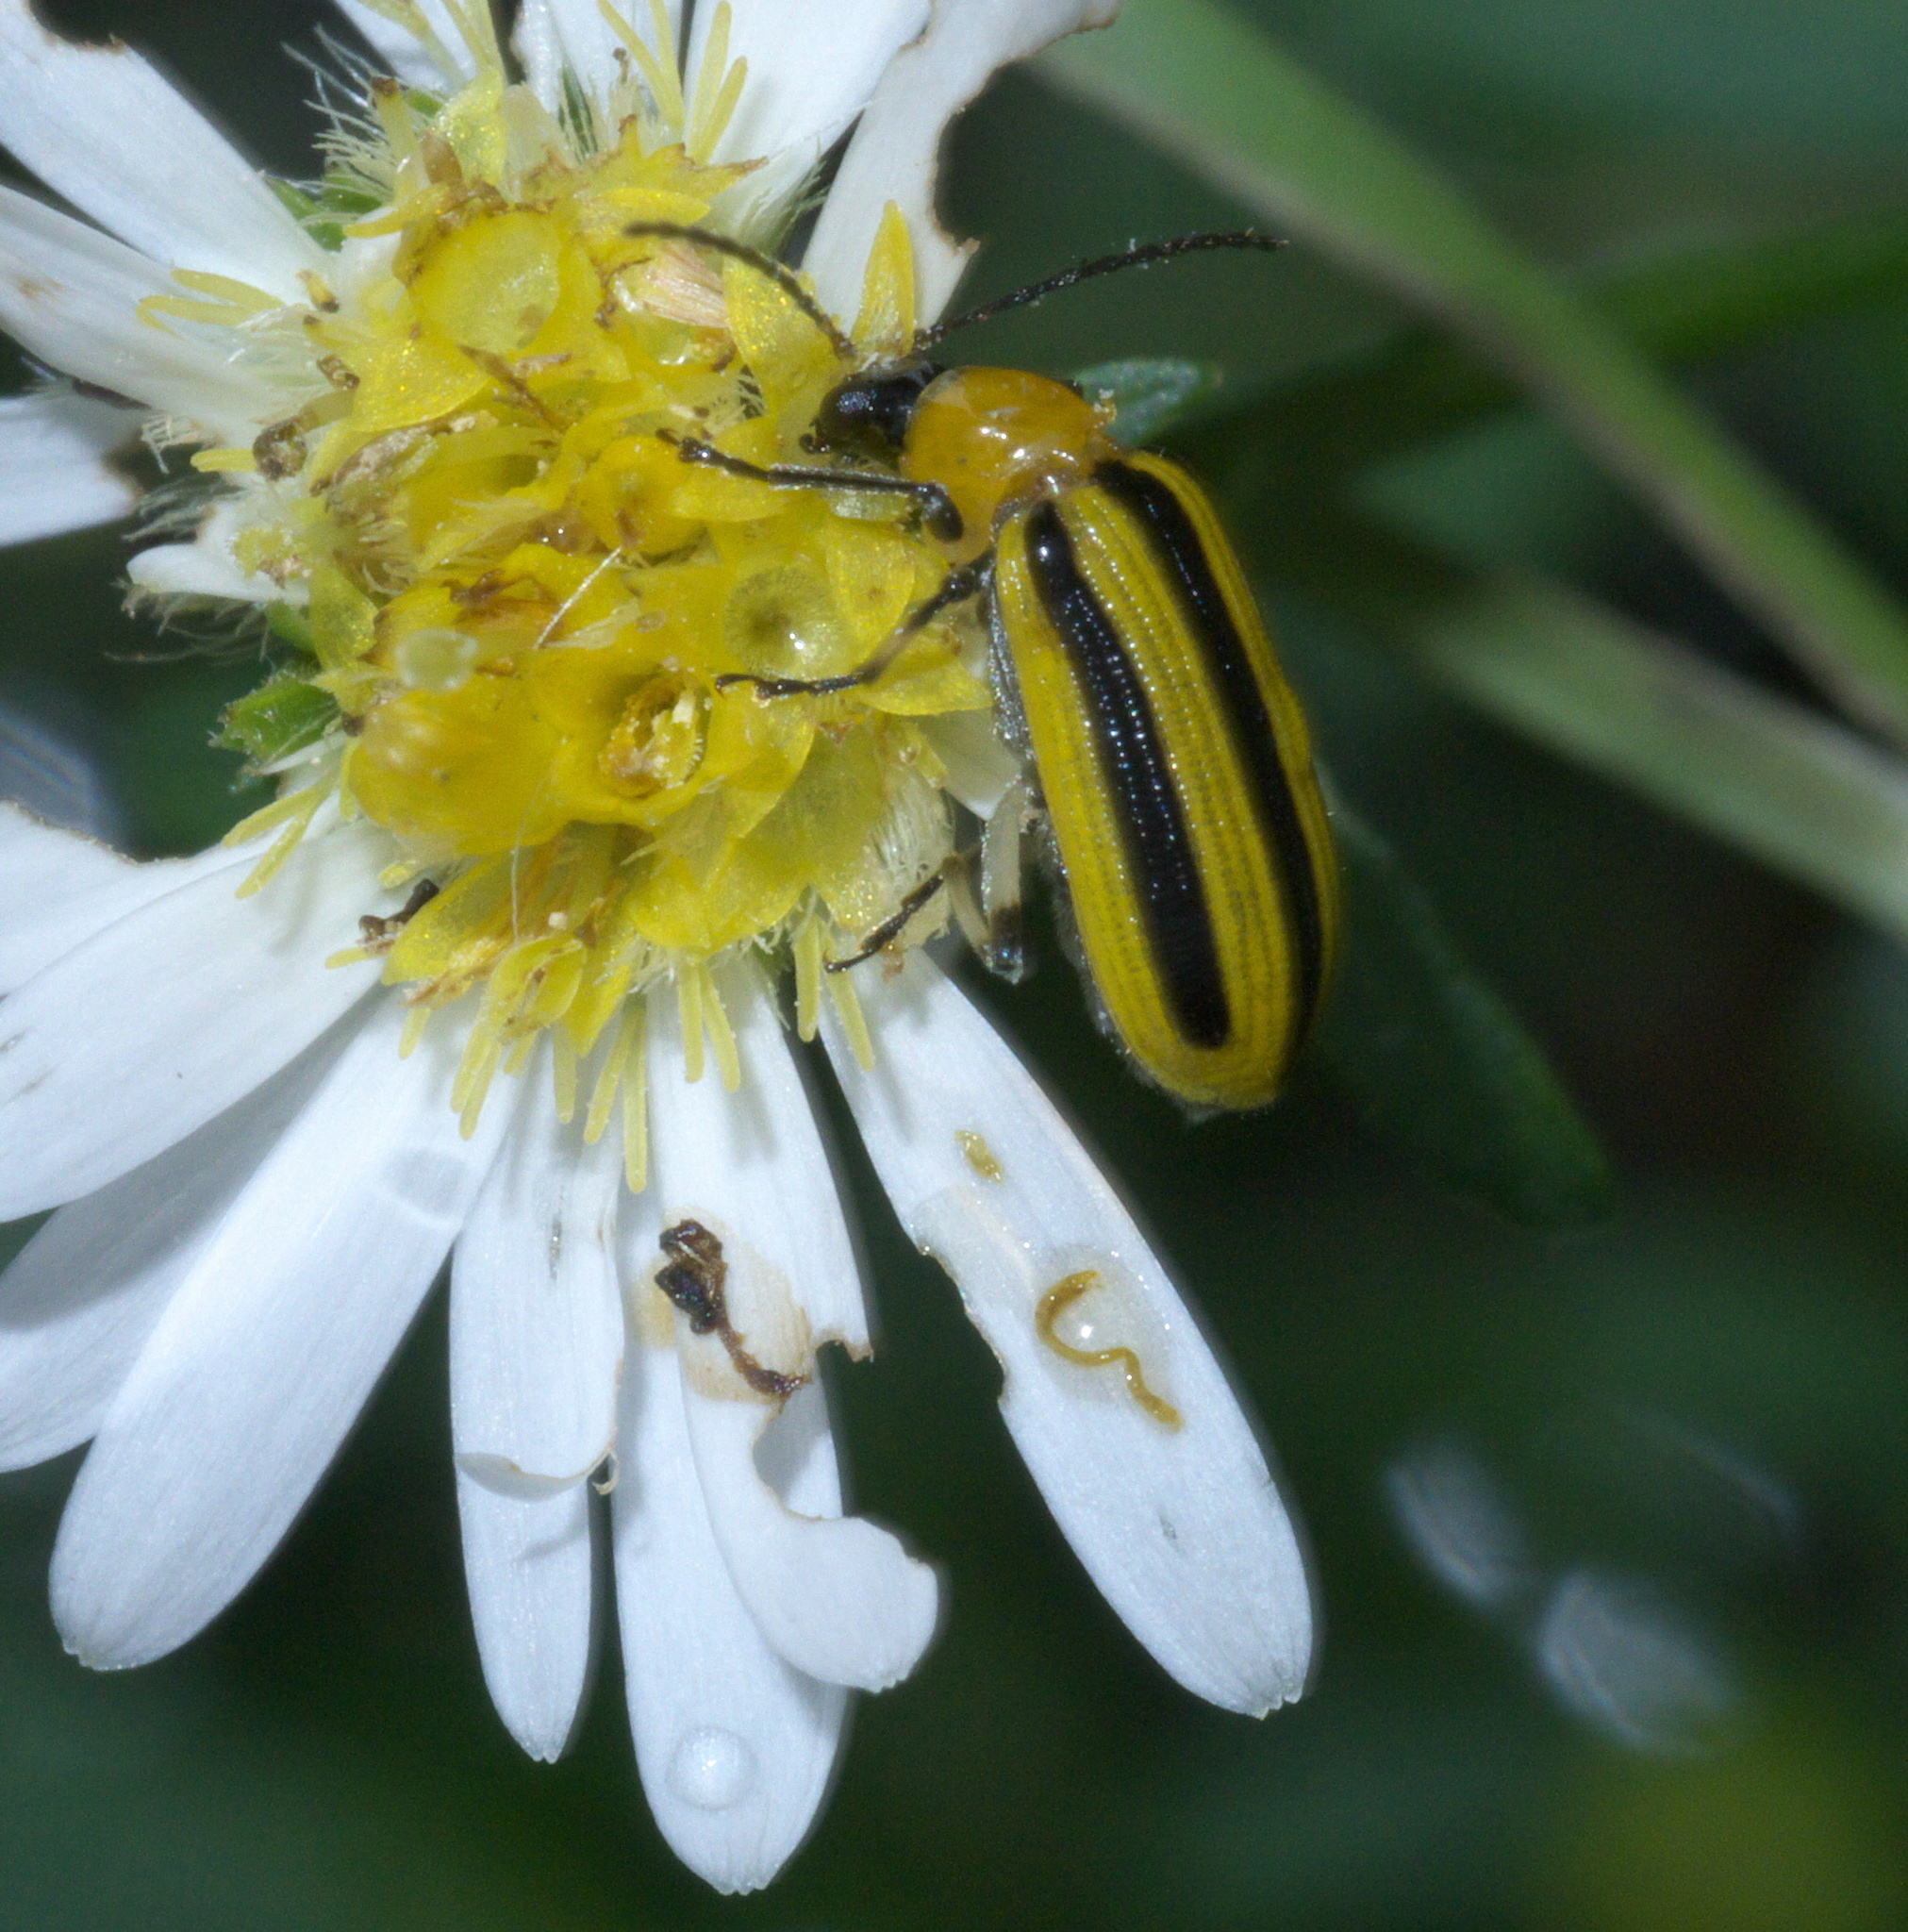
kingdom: Animalia
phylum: Arthropoda
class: Insecta
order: Coleoptera
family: Chrysomelidae
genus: Acalymma
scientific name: Acalymma vittatum
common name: Striped cucumber beetle
